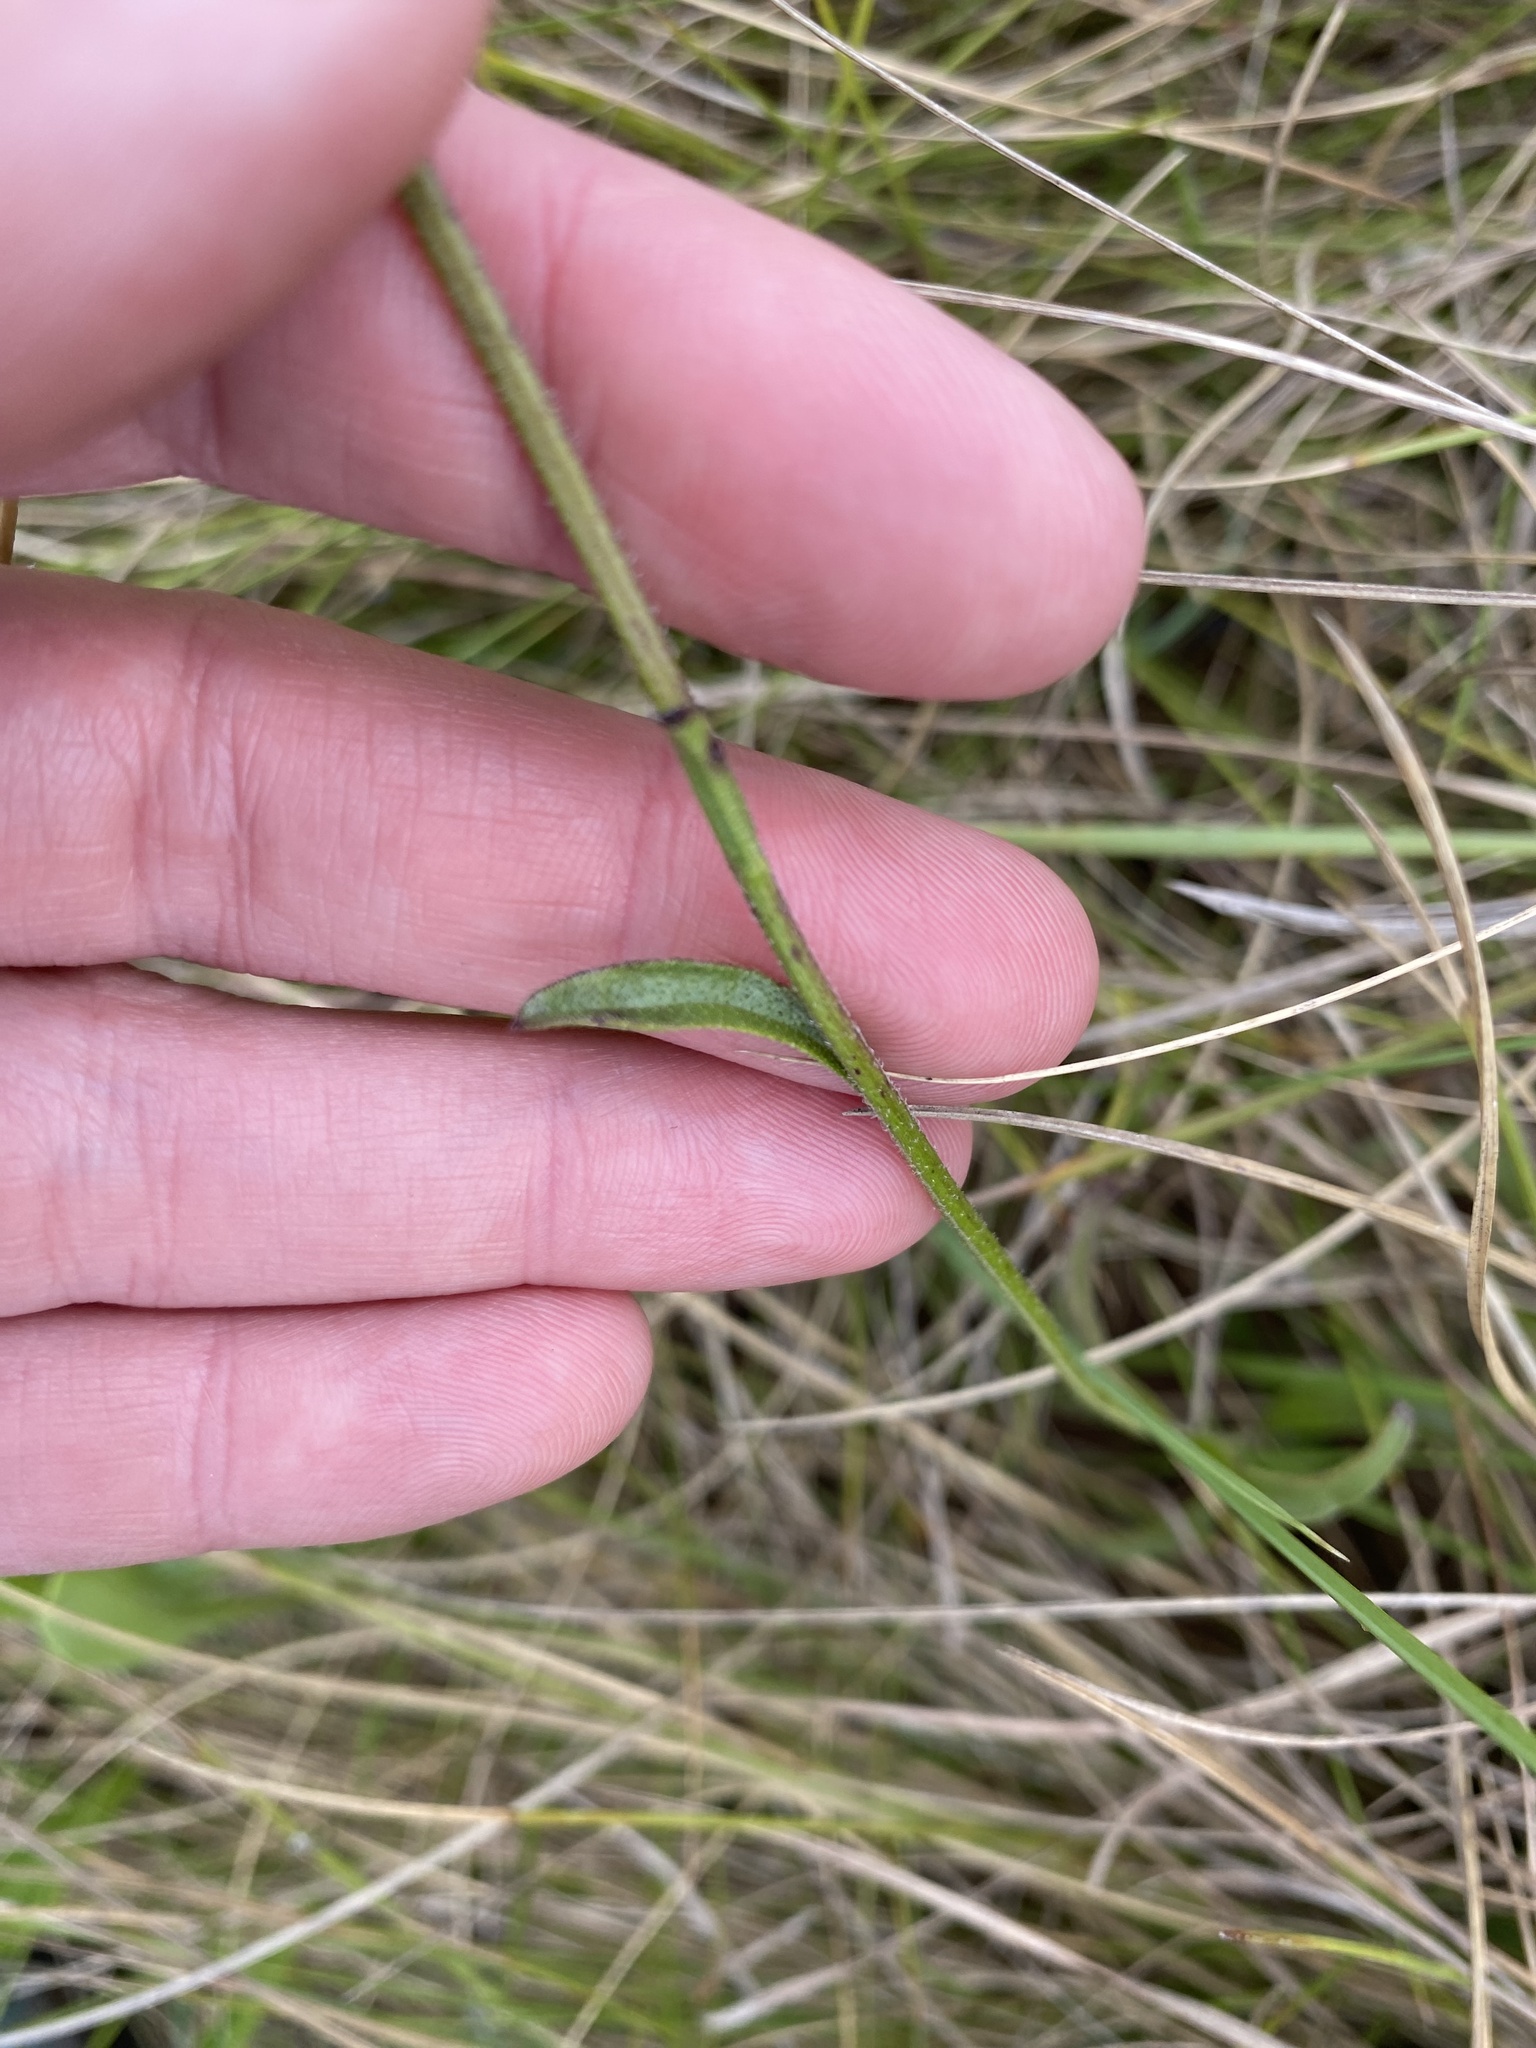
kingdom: Plantae
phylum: Tracheophyta
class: Magnoliopsida
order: Lamiales
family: Orobanchaceae
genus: Buchnera
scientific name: Buchnera simplex
